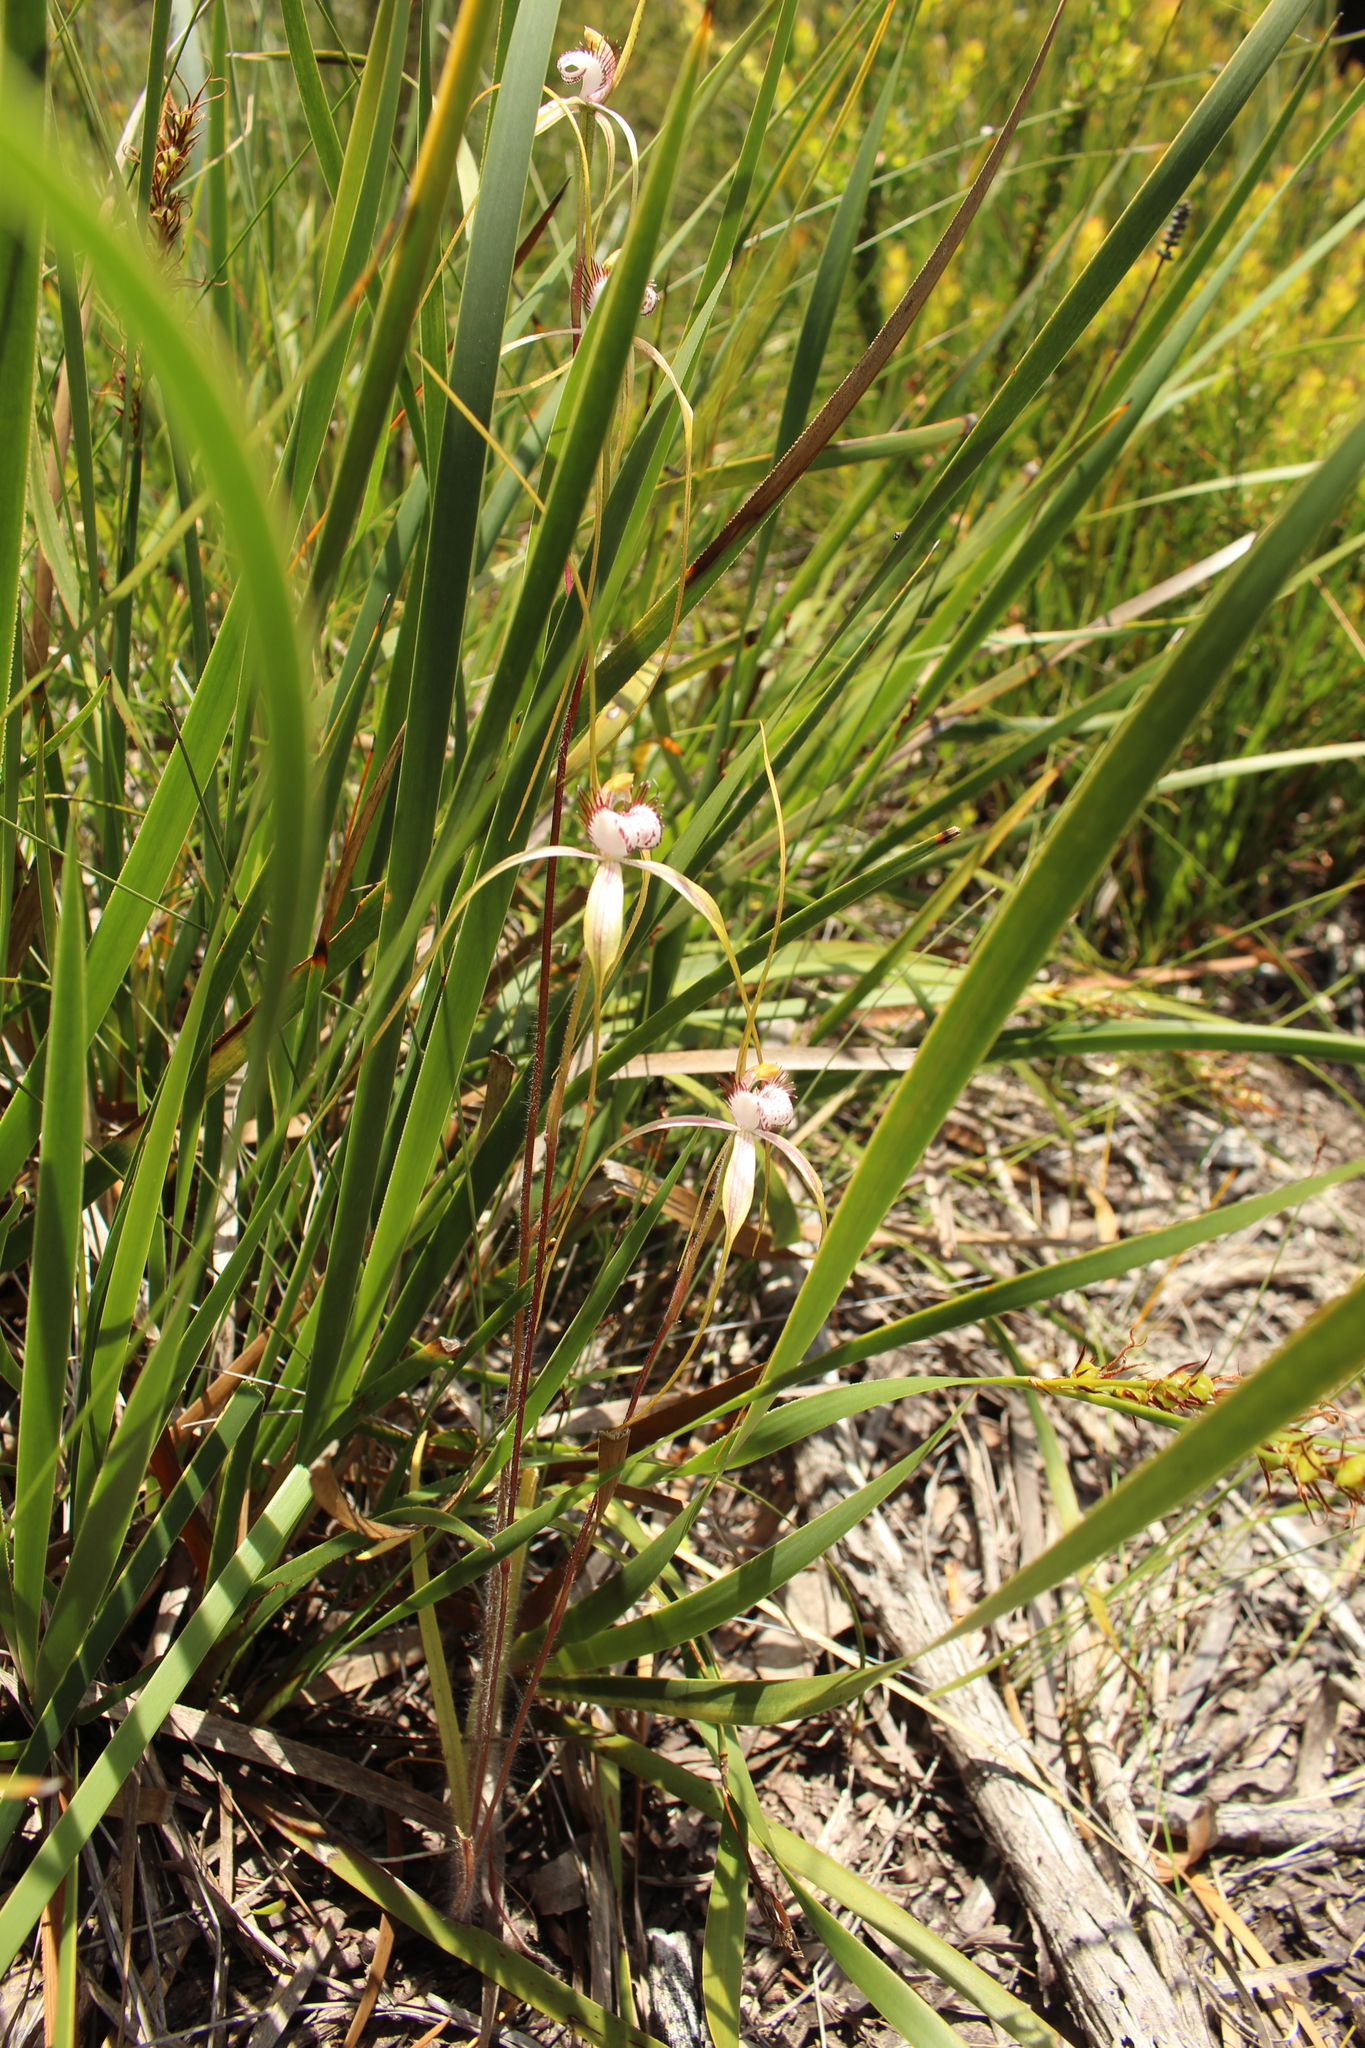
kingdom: Plantae
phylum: Tracheophyta
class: Liliopsida
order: Asparagales
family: Orchidaceae
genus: Caladenia
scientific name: Caladenia serotina
